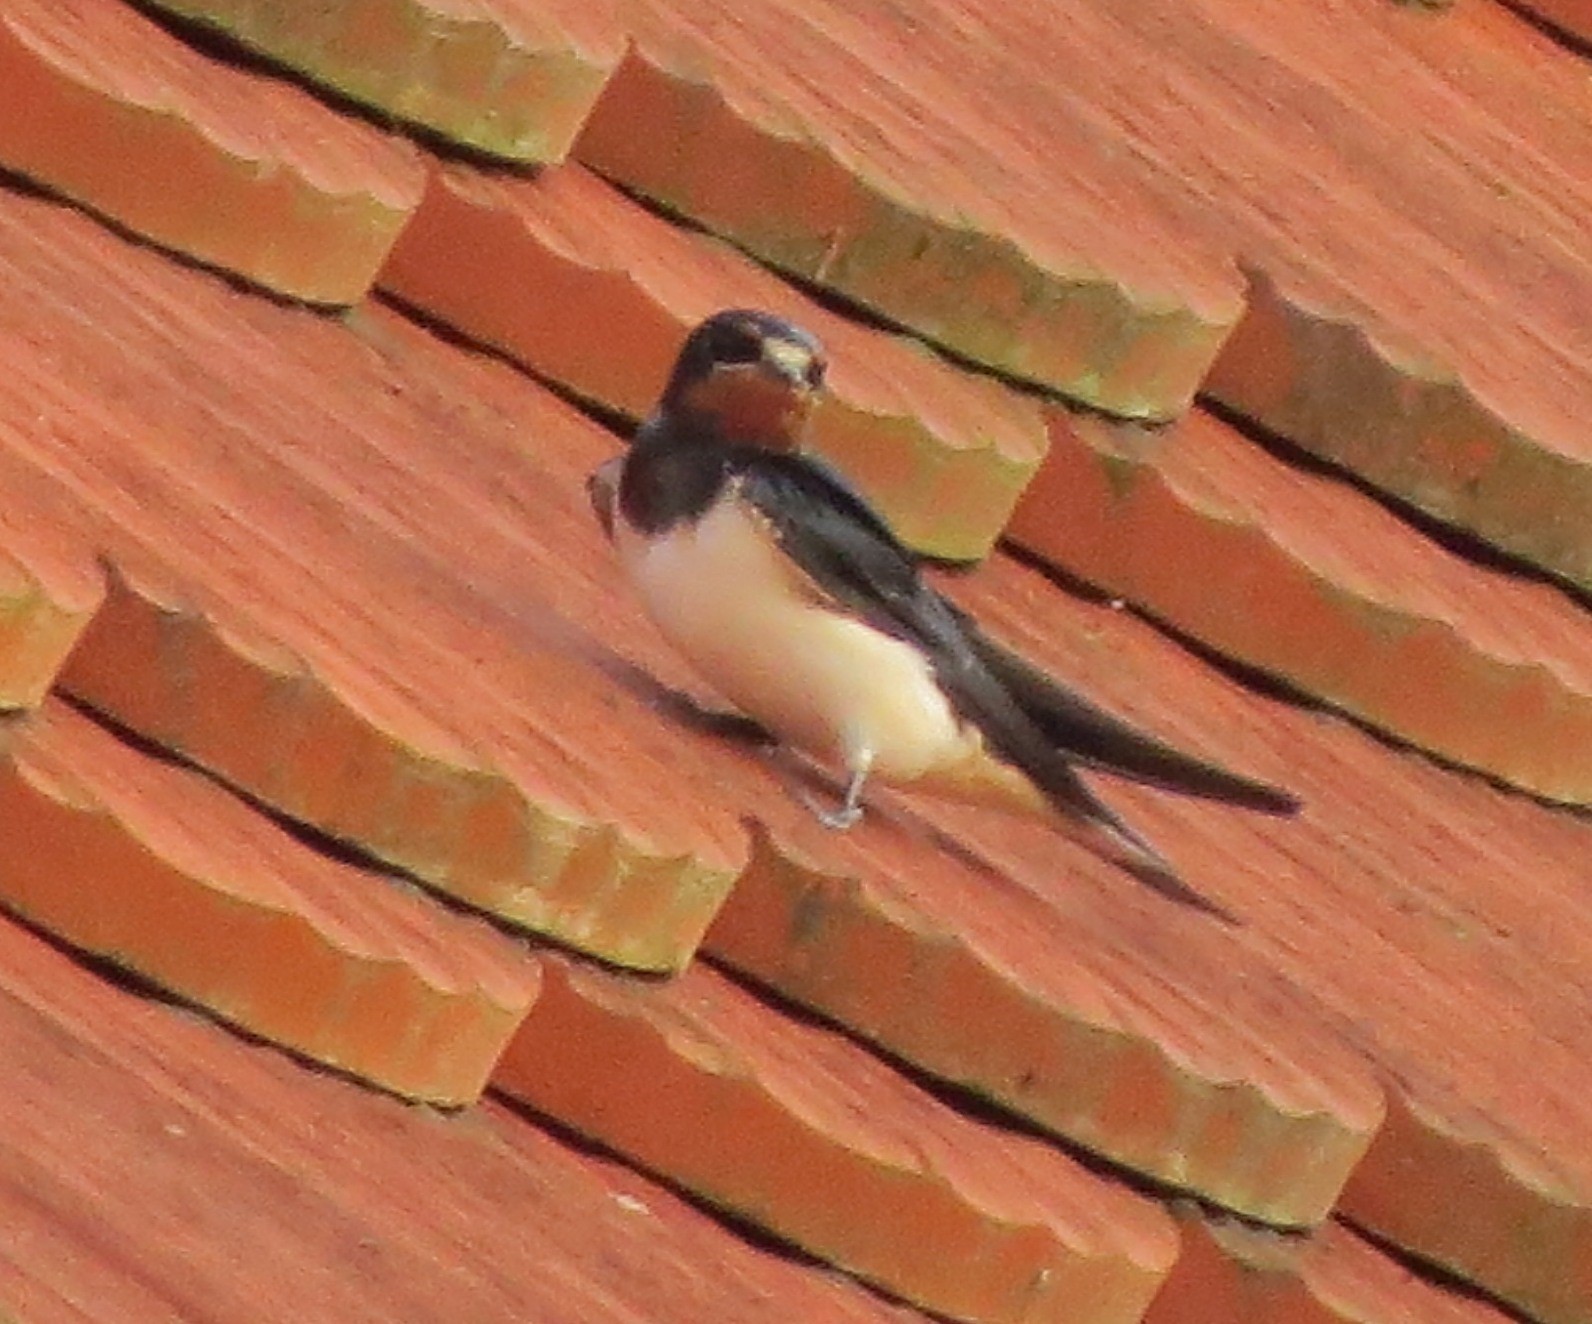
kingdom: Animalia
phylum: Chordata
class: Aves
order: Passeriformes
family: Hirundinidae
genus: Hirundo
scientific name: Hirundo rustica
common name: Barn swallow
